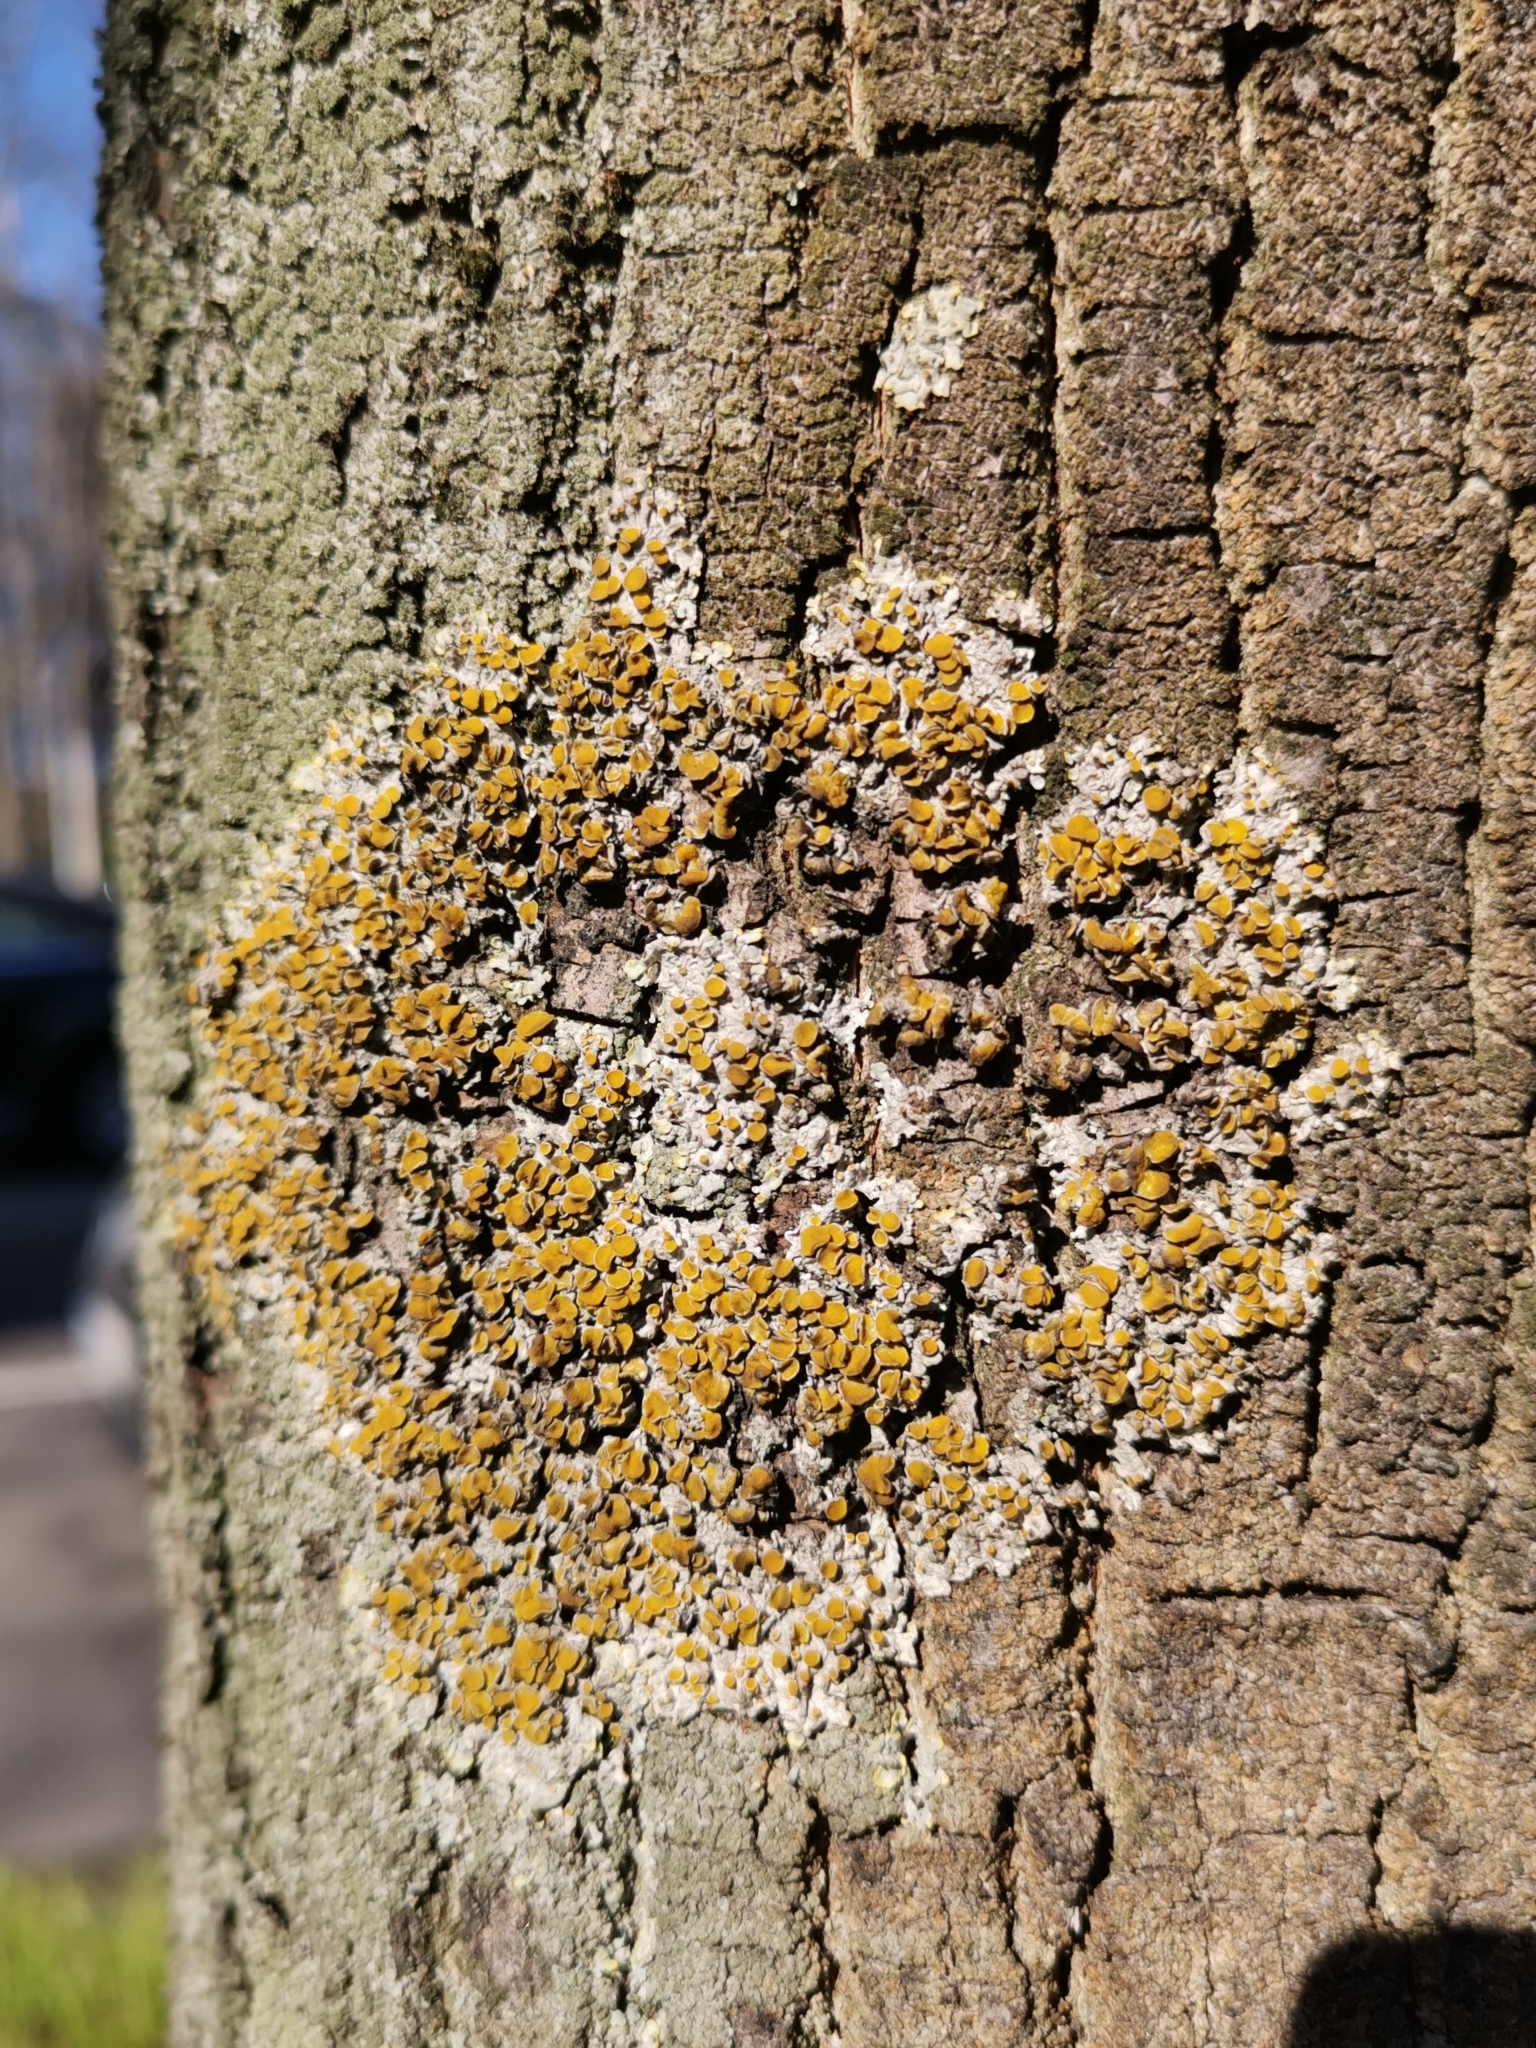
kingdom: Fungi
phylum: Ascomycota
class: Lecanoromycetes
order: Teloschistales
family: Teloschistaceae
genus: Xanthoria
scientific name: Xanthoria parietina
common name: Common orange lichen
